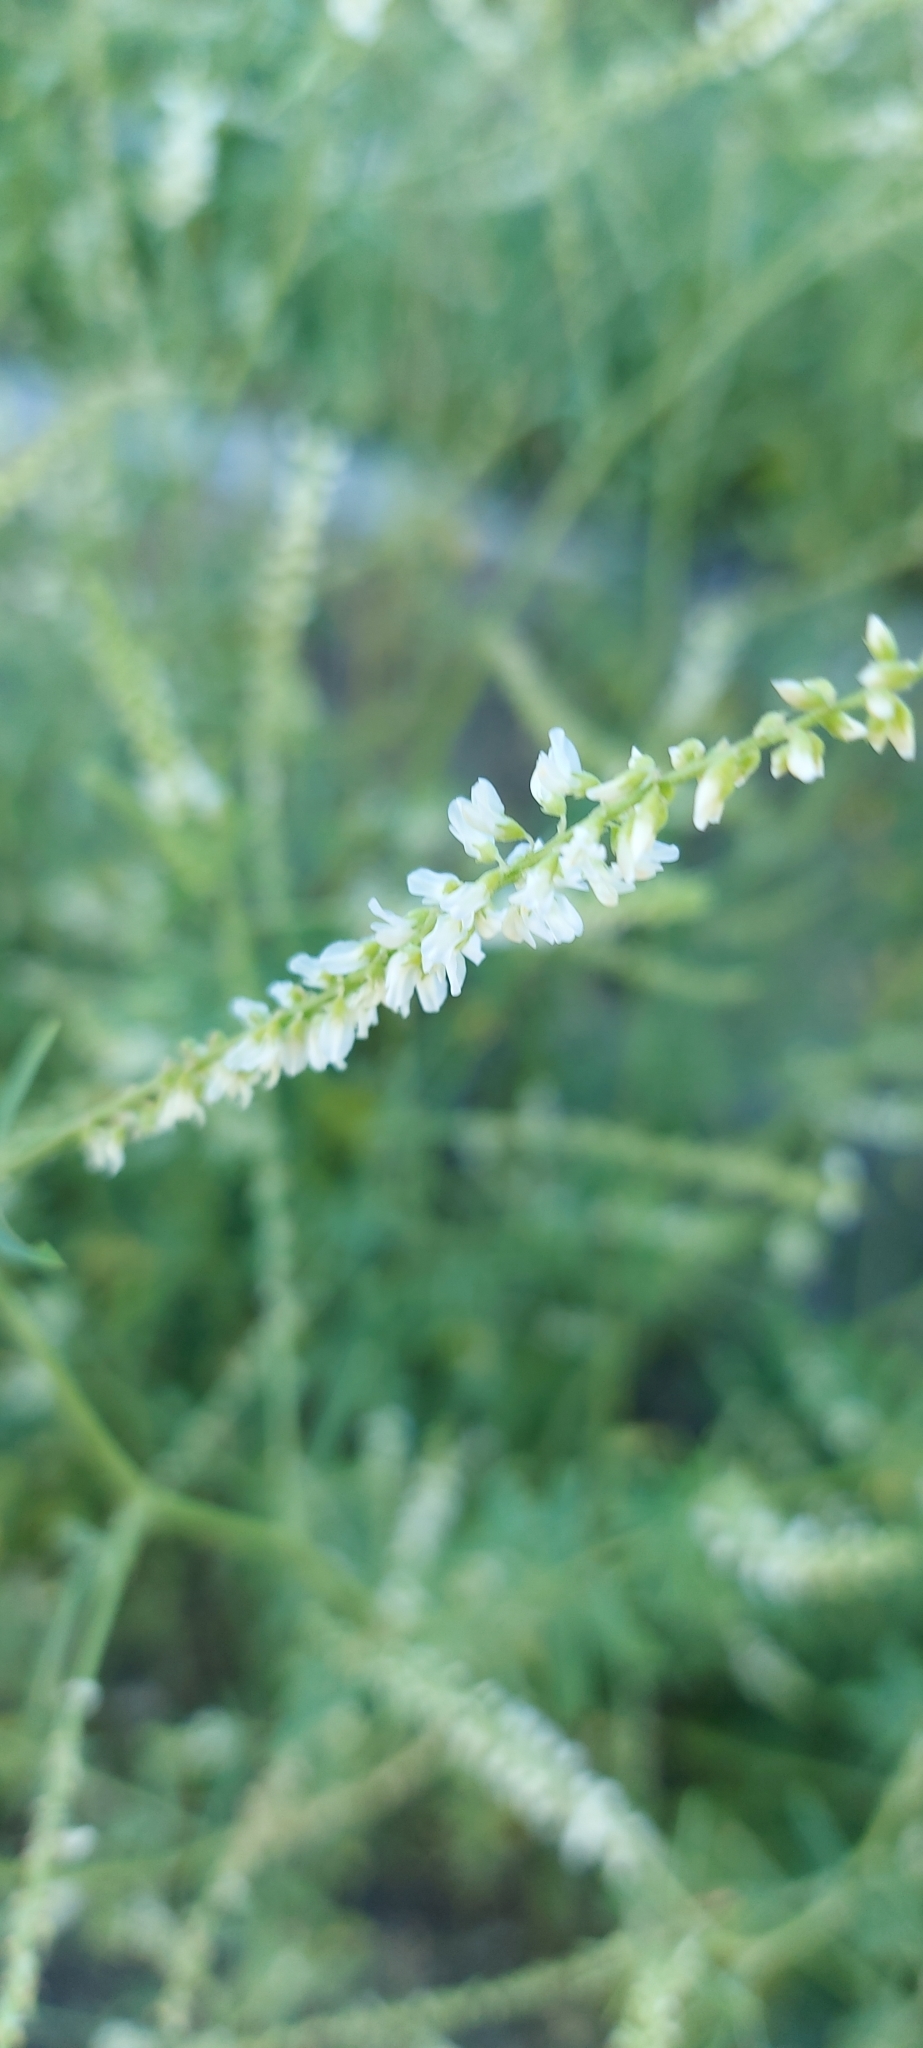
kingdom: Plantae
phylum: Tracheophyta
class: Magnoliopsida
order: Fabales
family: Fabaceae
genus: Melilotus
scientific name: Melilotus albus
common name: White melilot
